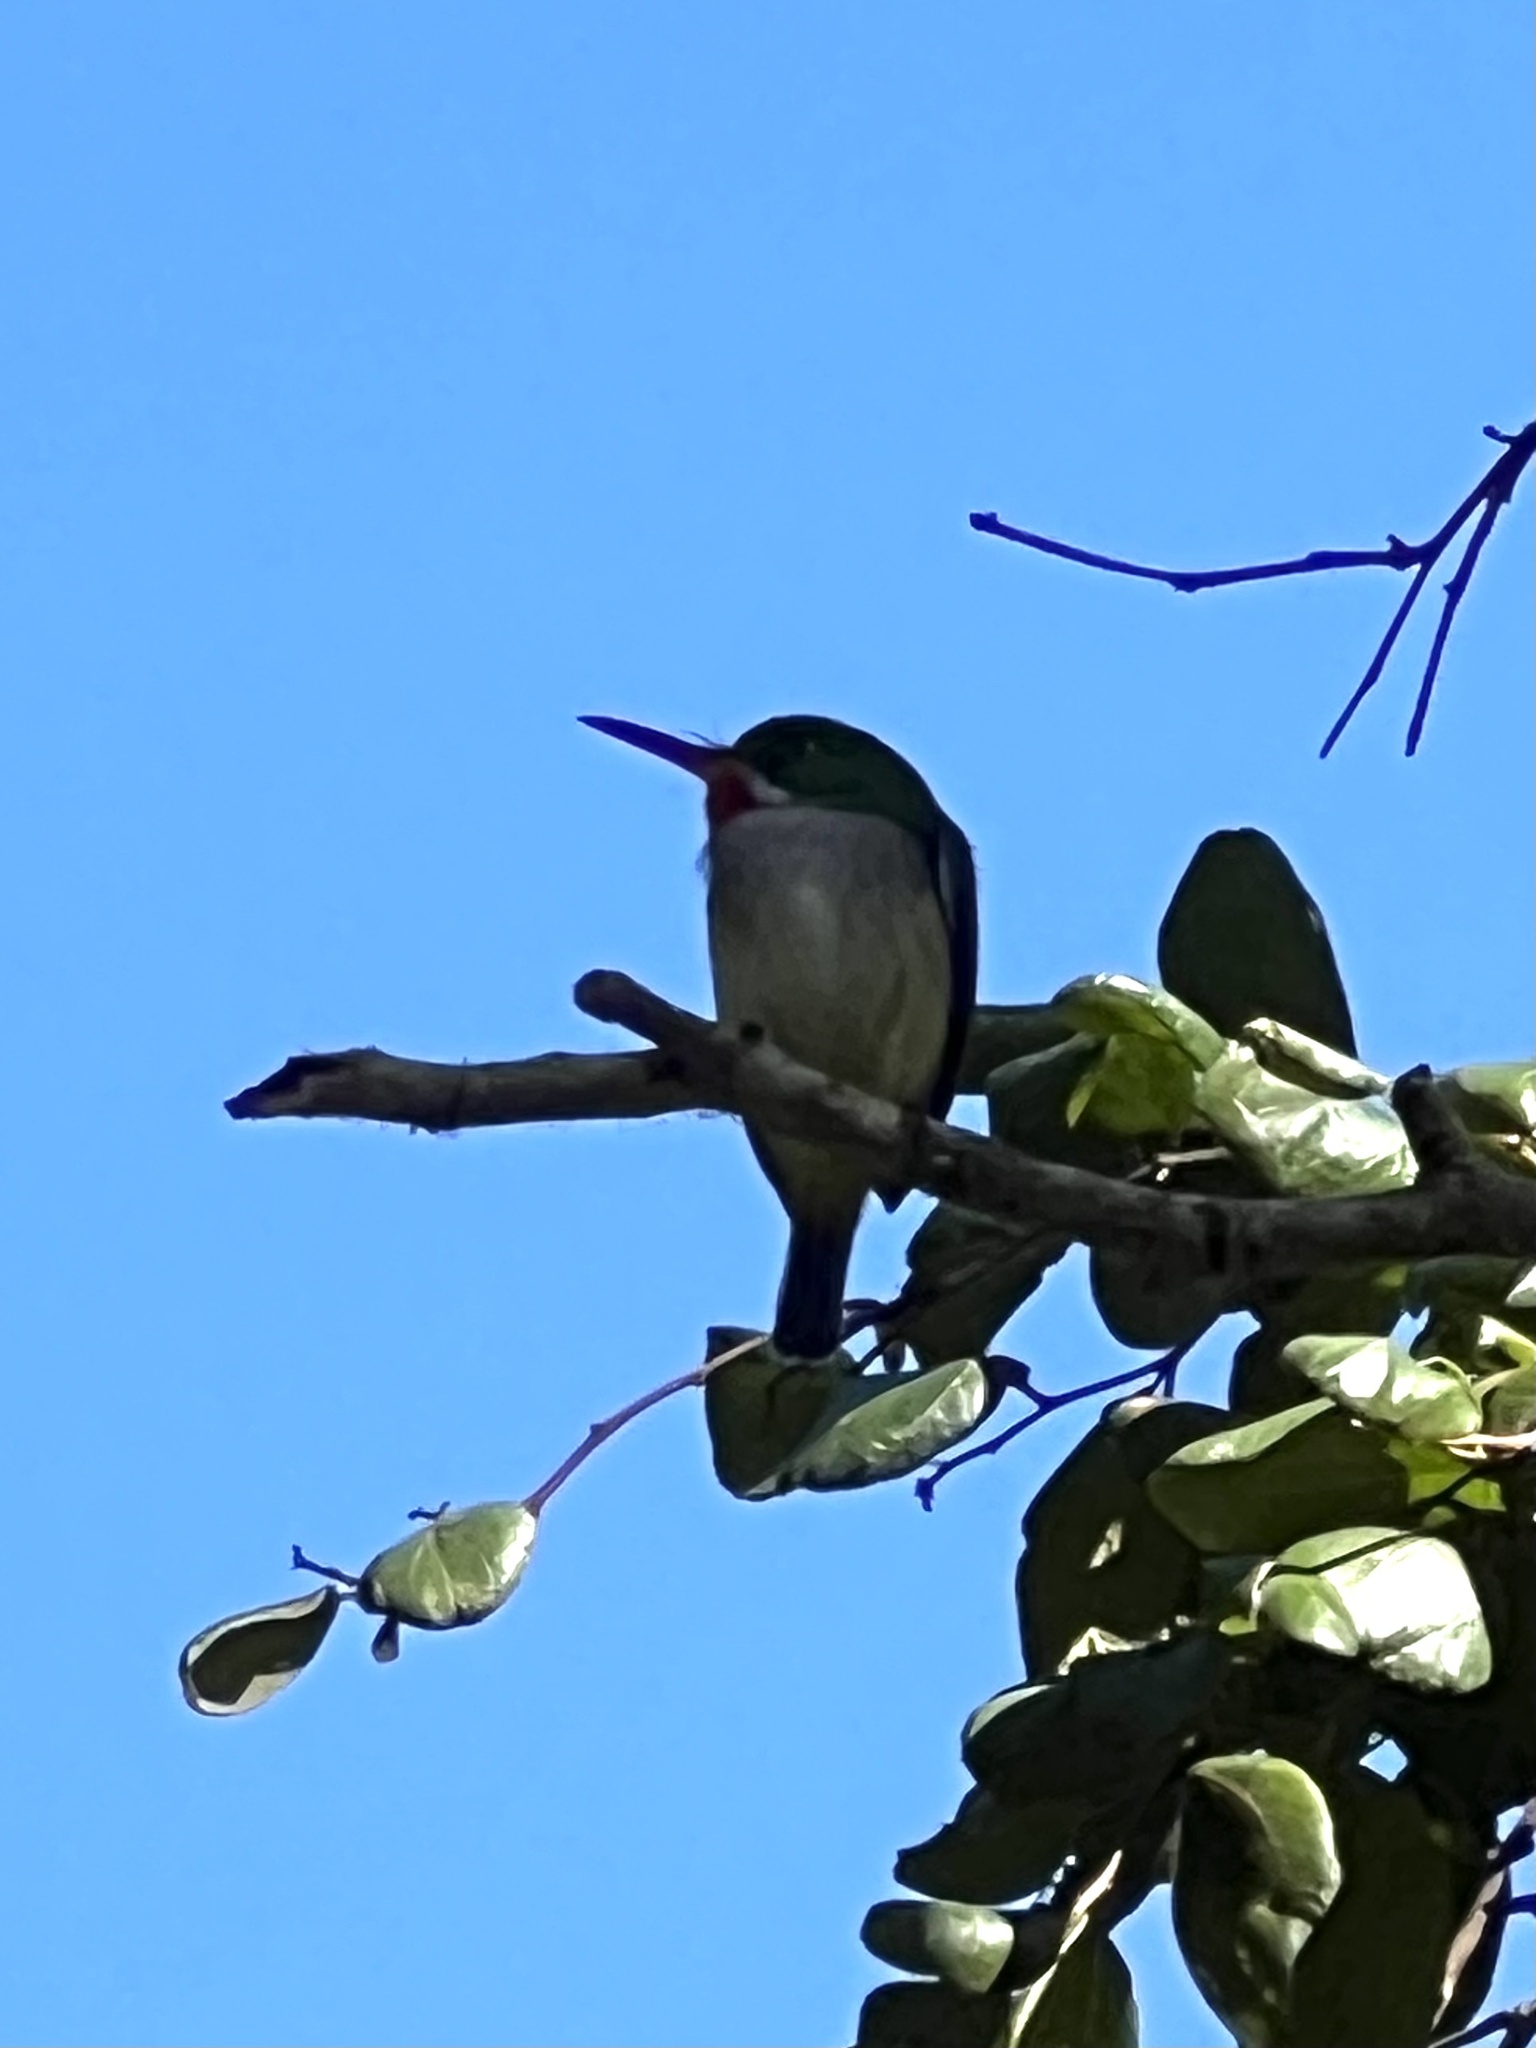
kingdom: Animalia
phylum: Chordata
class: Aves
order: Coraciiformes
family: Todidae
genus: Todus
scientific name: Todus mexicanus
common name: Puerto rican tody
